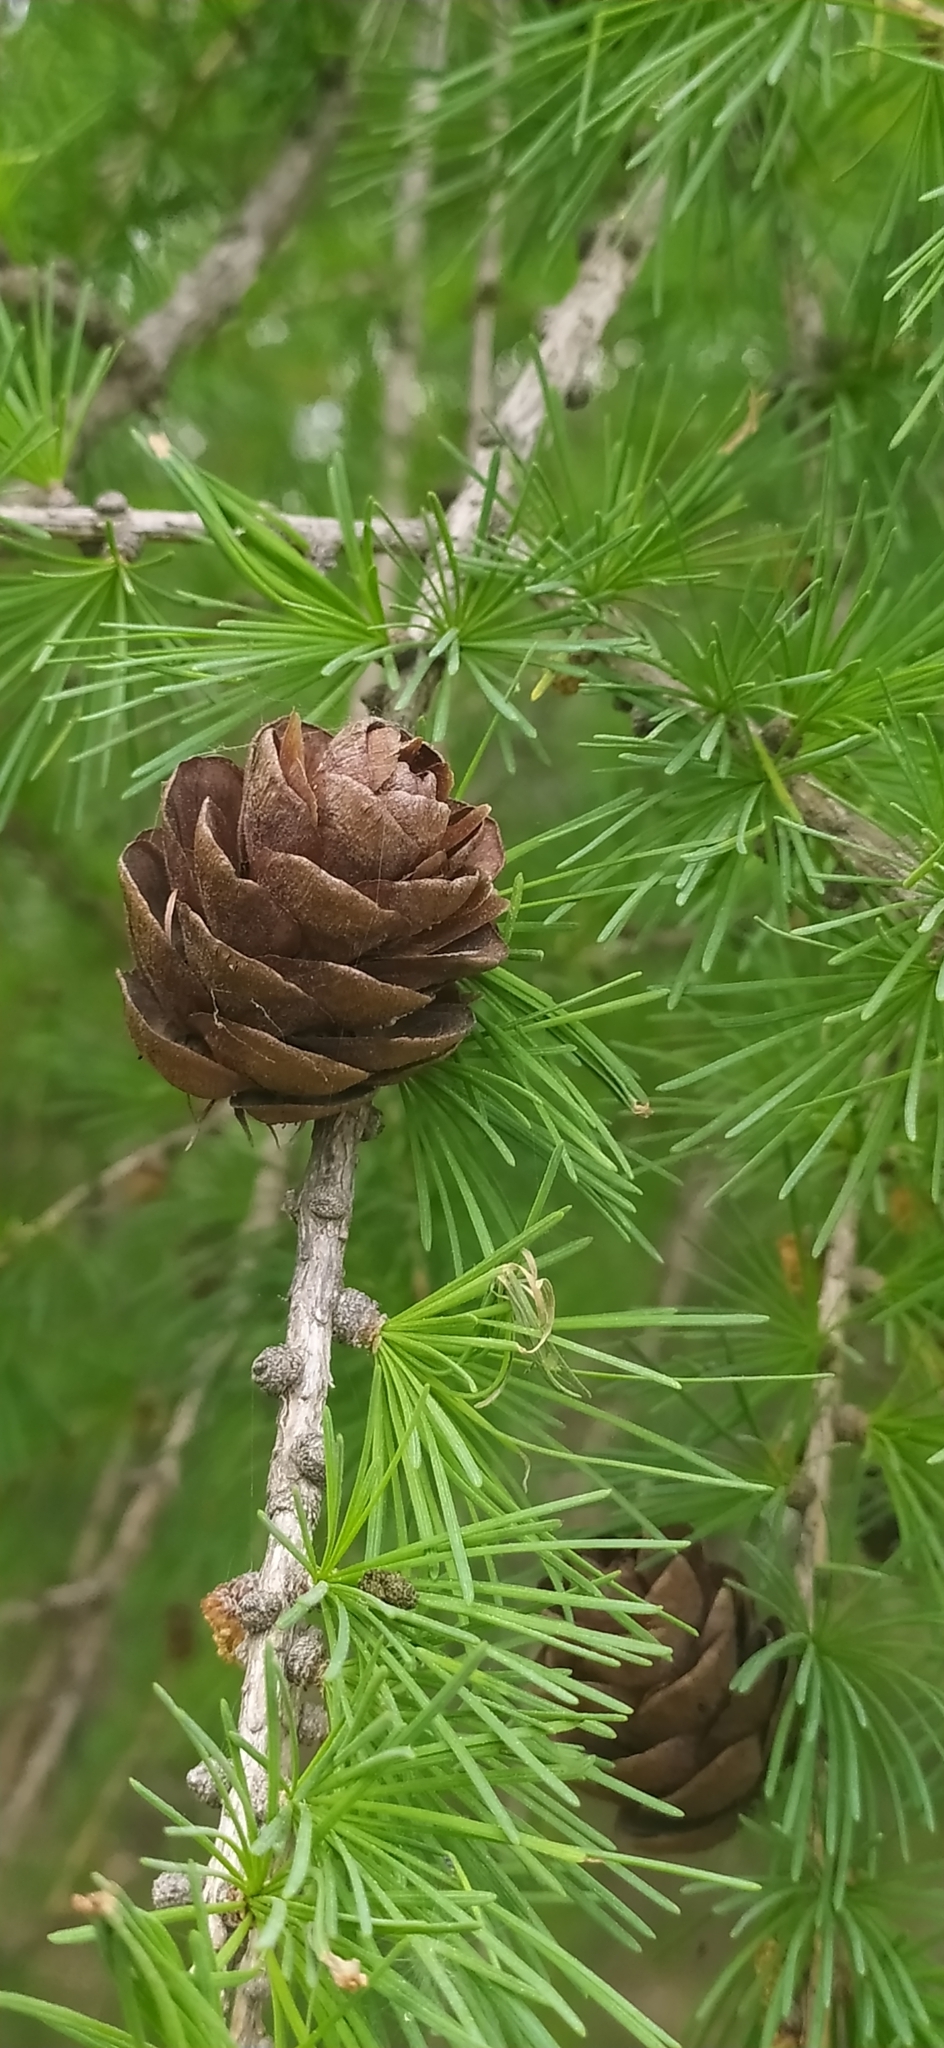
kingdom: Plantae
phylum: Tracheophyta
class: Pinopsida
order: Pinales
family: Pinaceae
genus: Larix
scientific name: Larix sibirica
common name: Siberian larch
